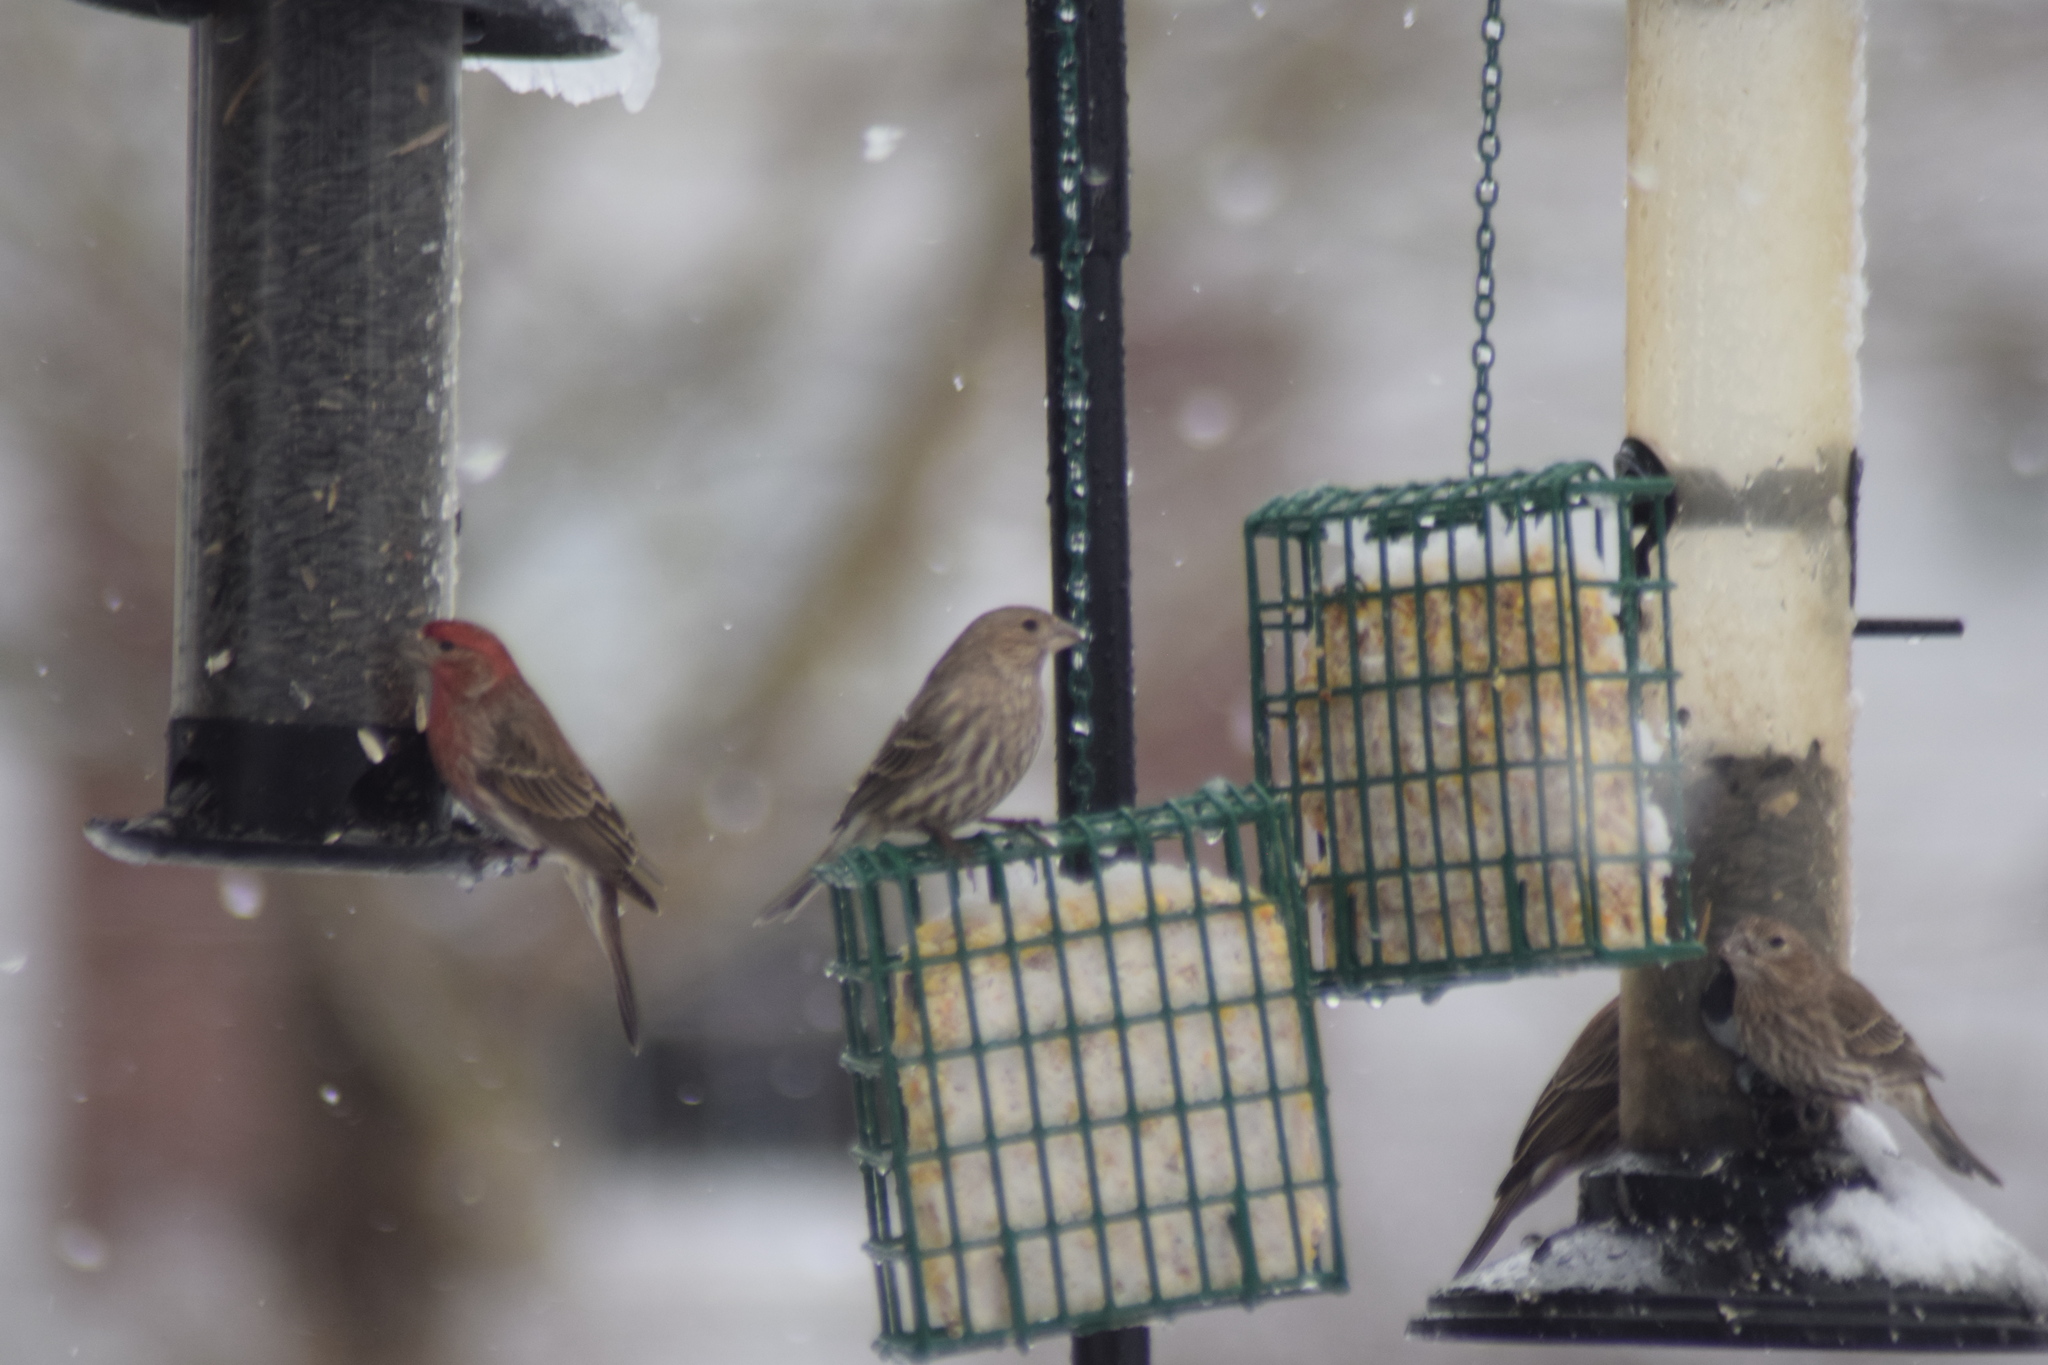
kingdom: Animalia
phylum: Chordata
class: Aves
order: Passeriformes
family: Fringillidae
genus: Haemorhous
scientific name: Haemorhous mexicanus
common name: House finch
